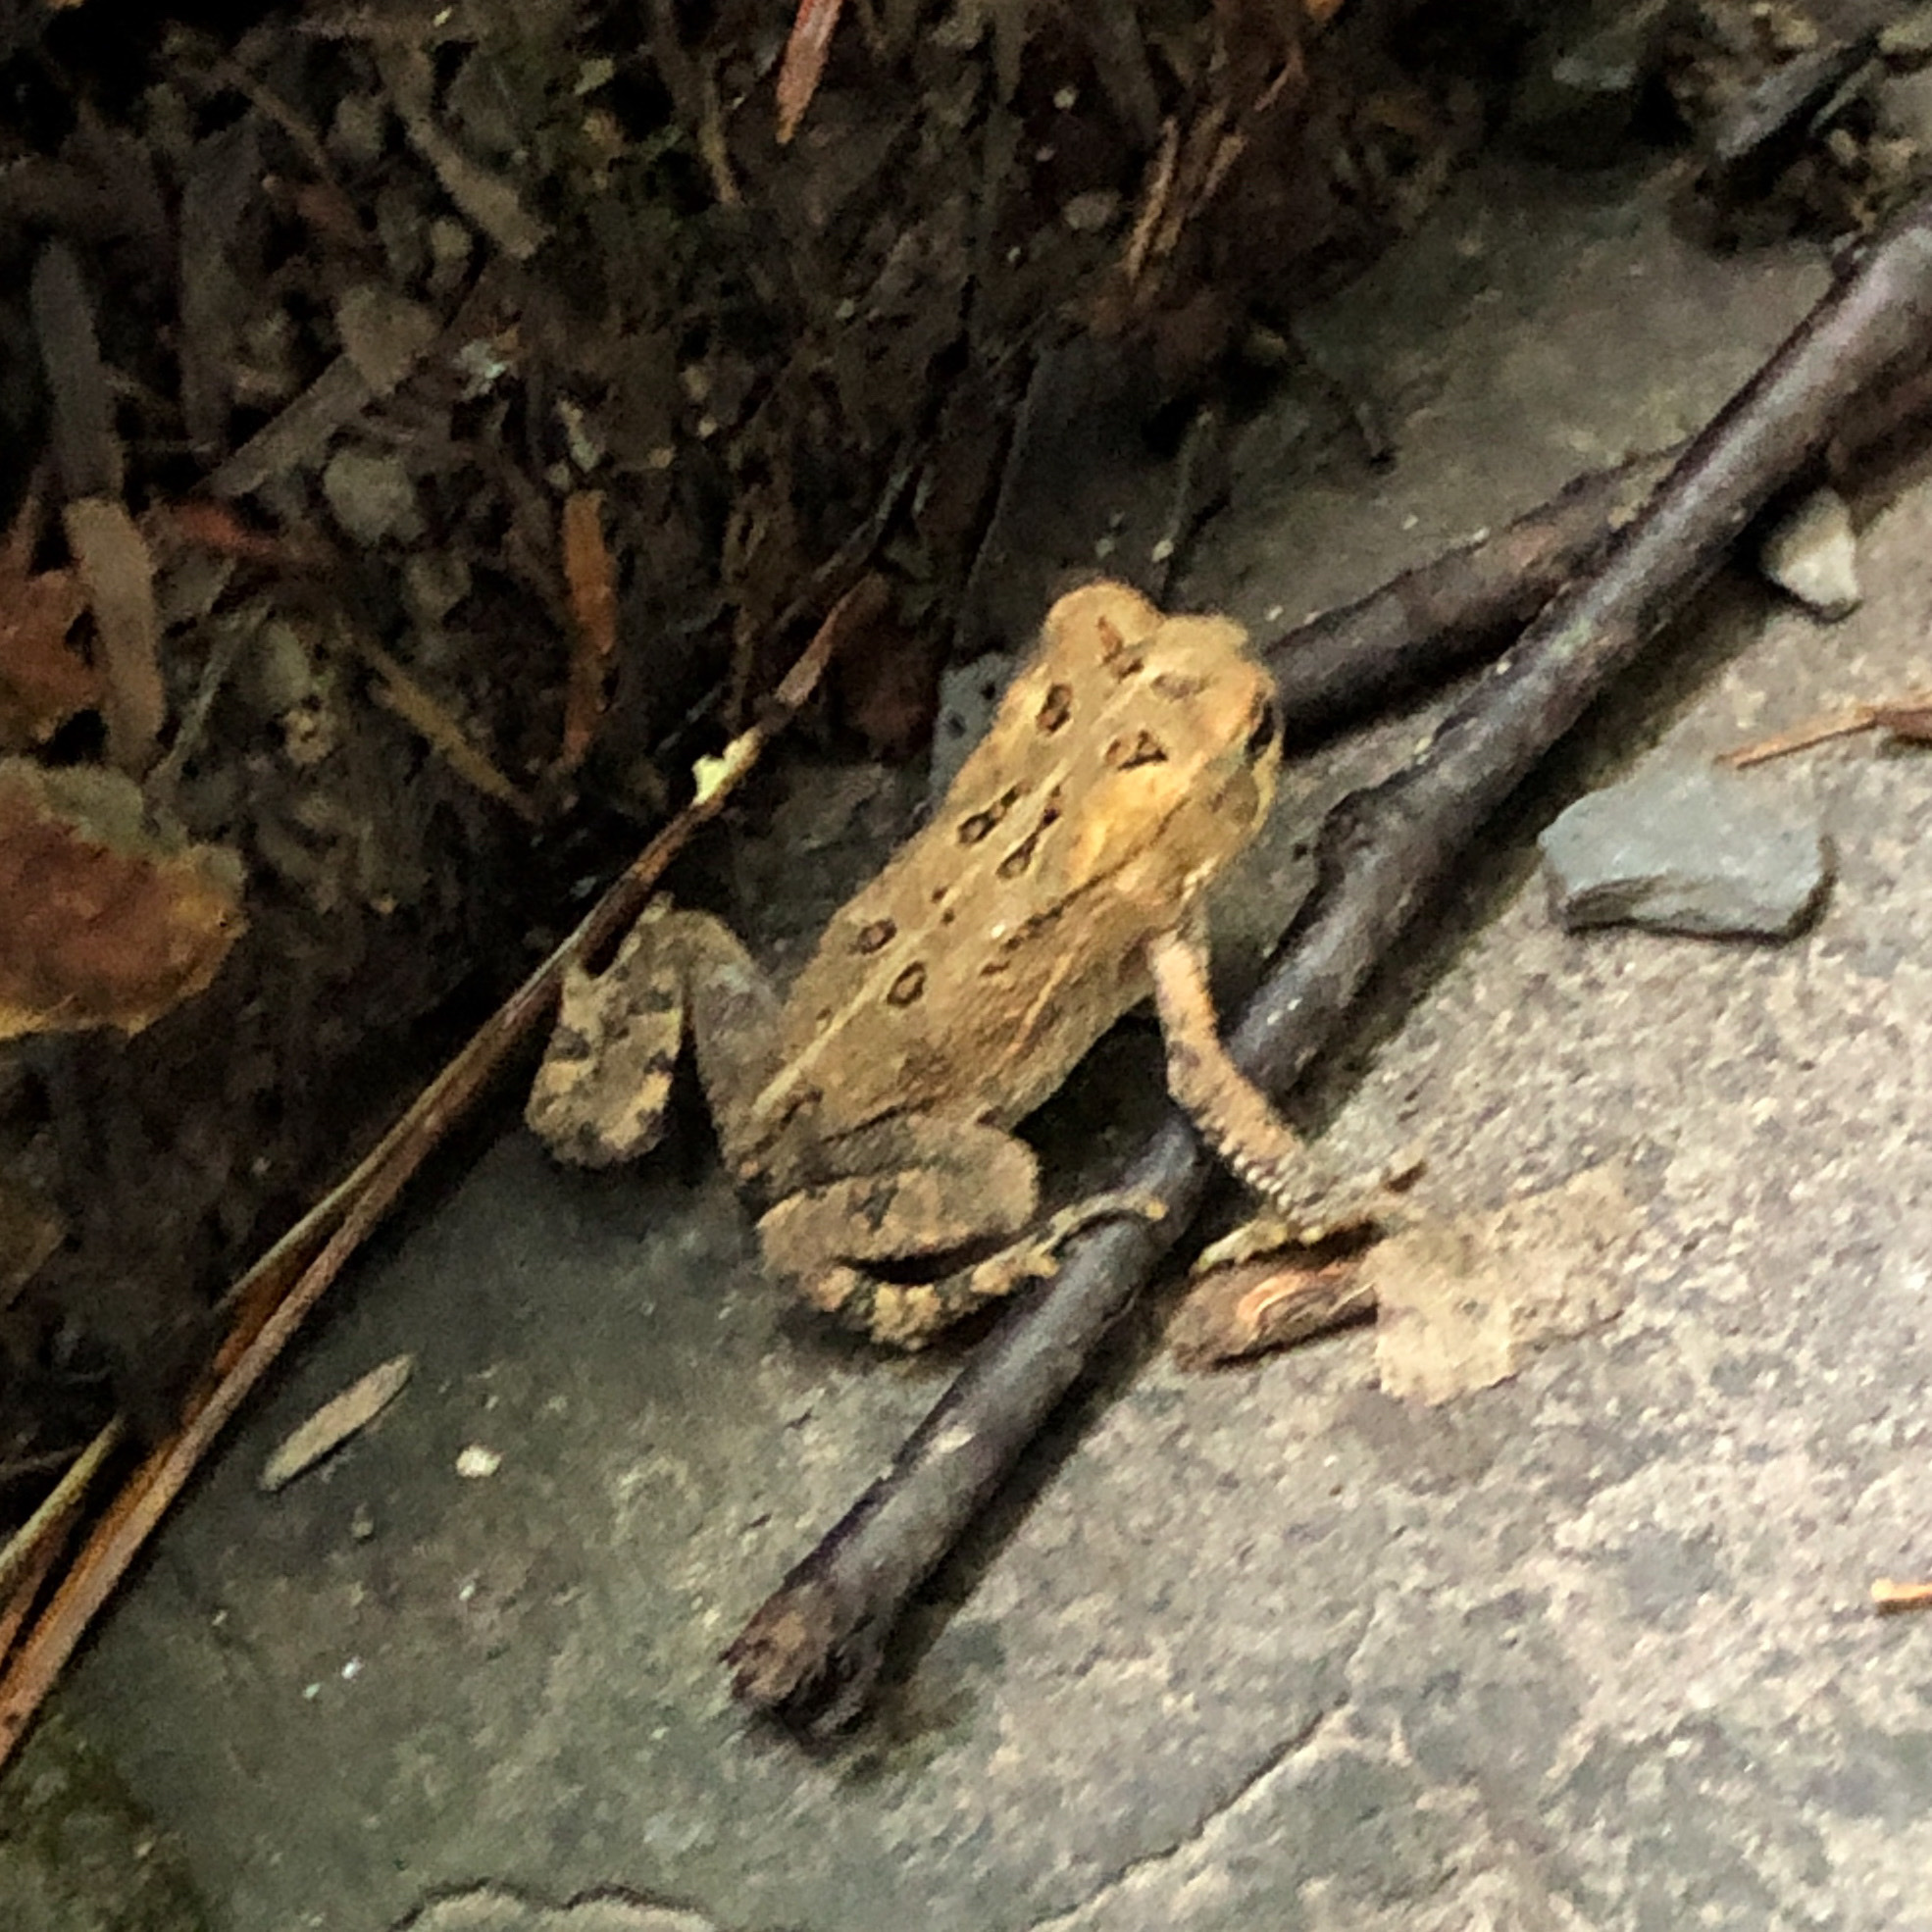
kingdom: Animalia
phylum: Chordata
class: Amphibia
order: Anura
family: Bufonidae
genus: Anaxyrus
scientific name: Anaxyrus americanus
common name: American toad
